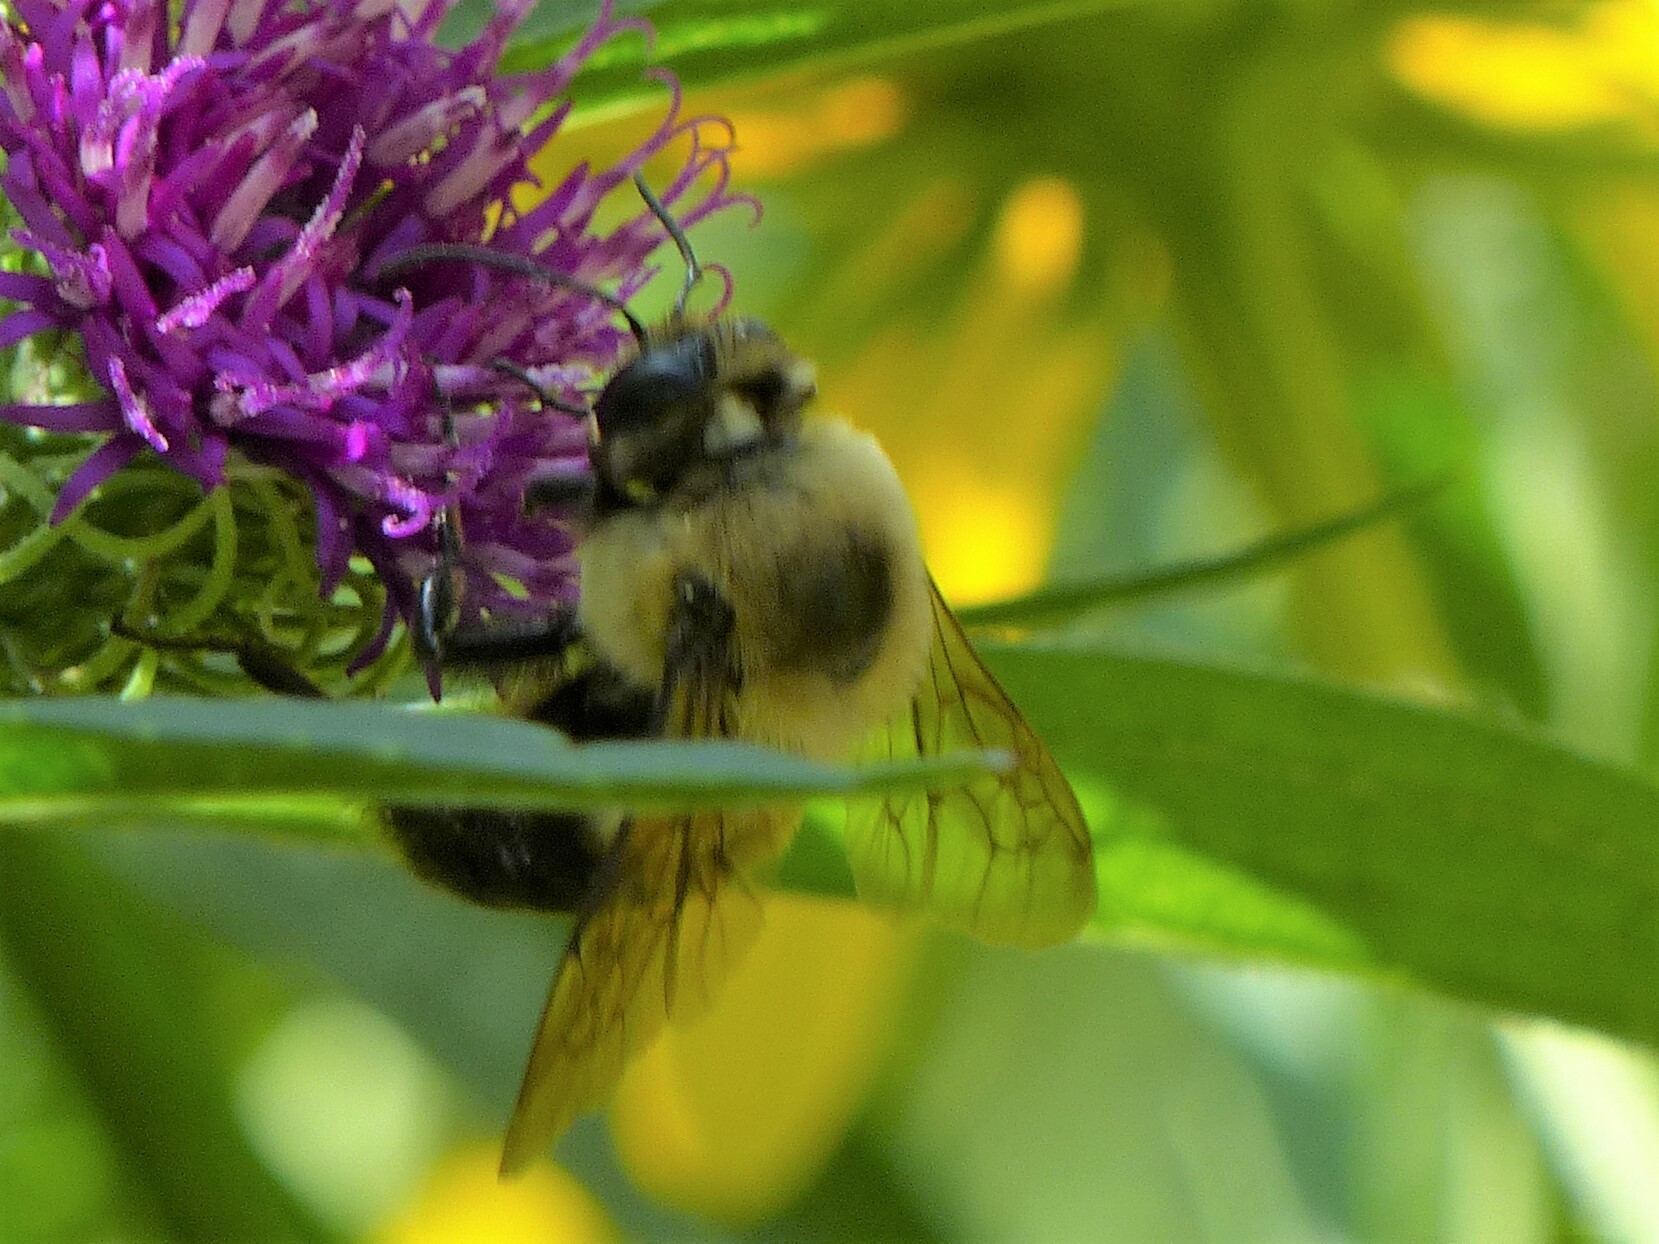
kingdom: Animalia
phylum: Arthropoda
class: Insecta
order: Hymenoptera
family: Apidae
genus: Bombus
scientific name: Bombus griseocollis
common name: Brown-belted bumble bee
